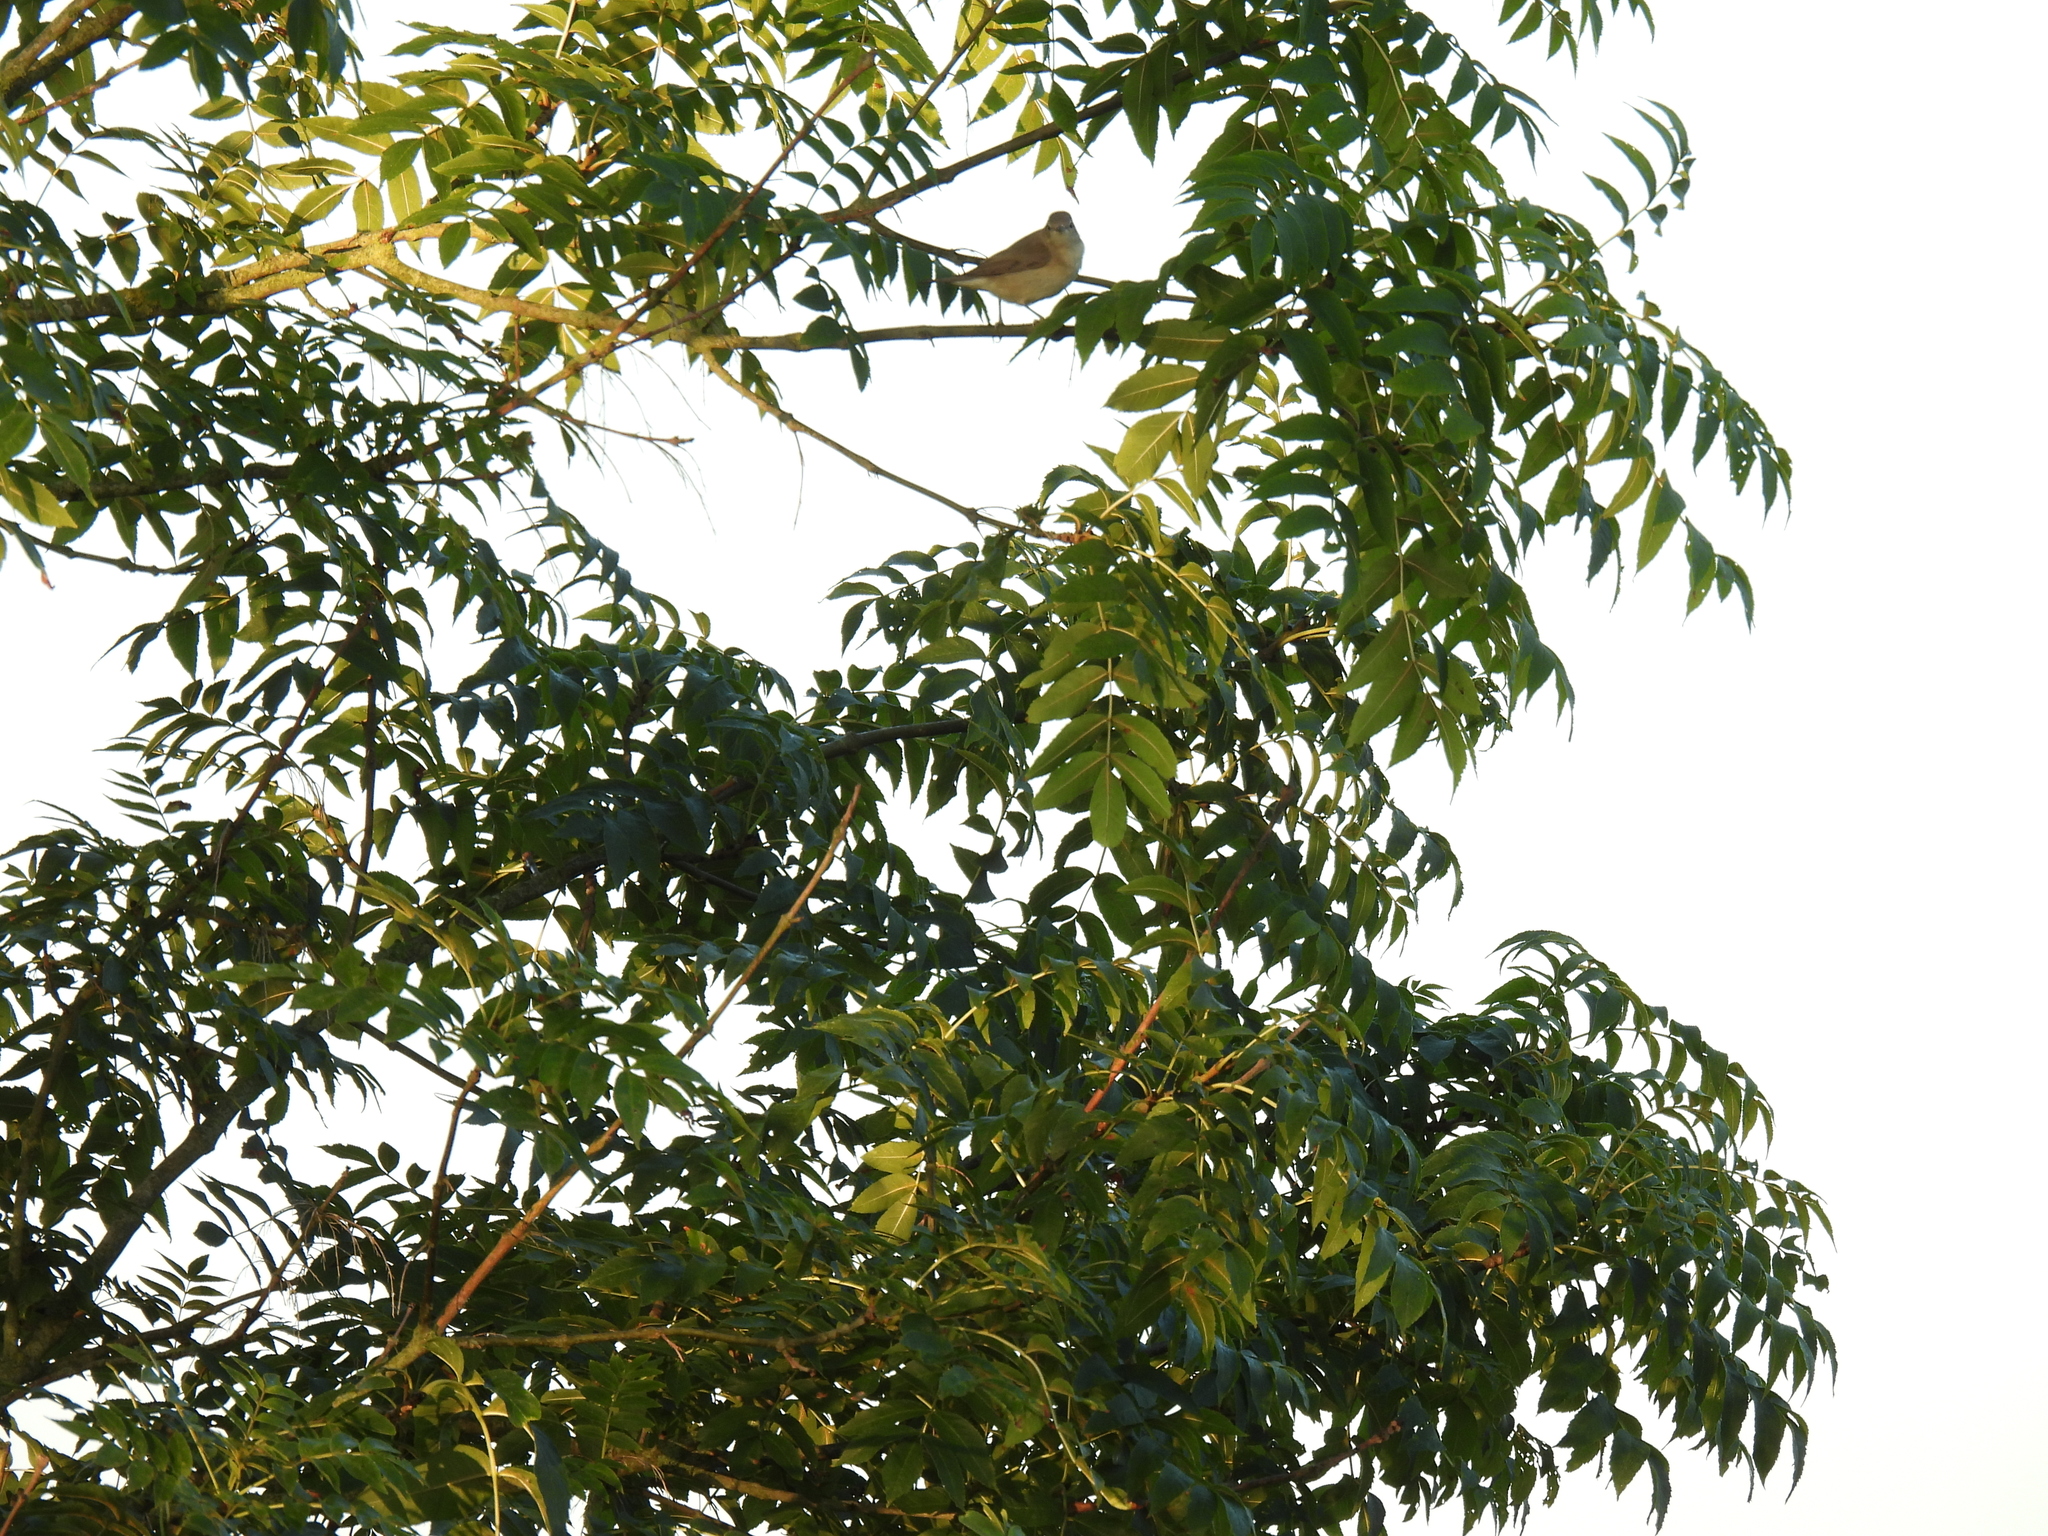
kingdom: Animalia
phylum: Chordata
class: Aves
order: Passeriformes
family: Sylviidae
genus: Sylvia
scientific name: Sylvia borin
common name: Garden warbler
